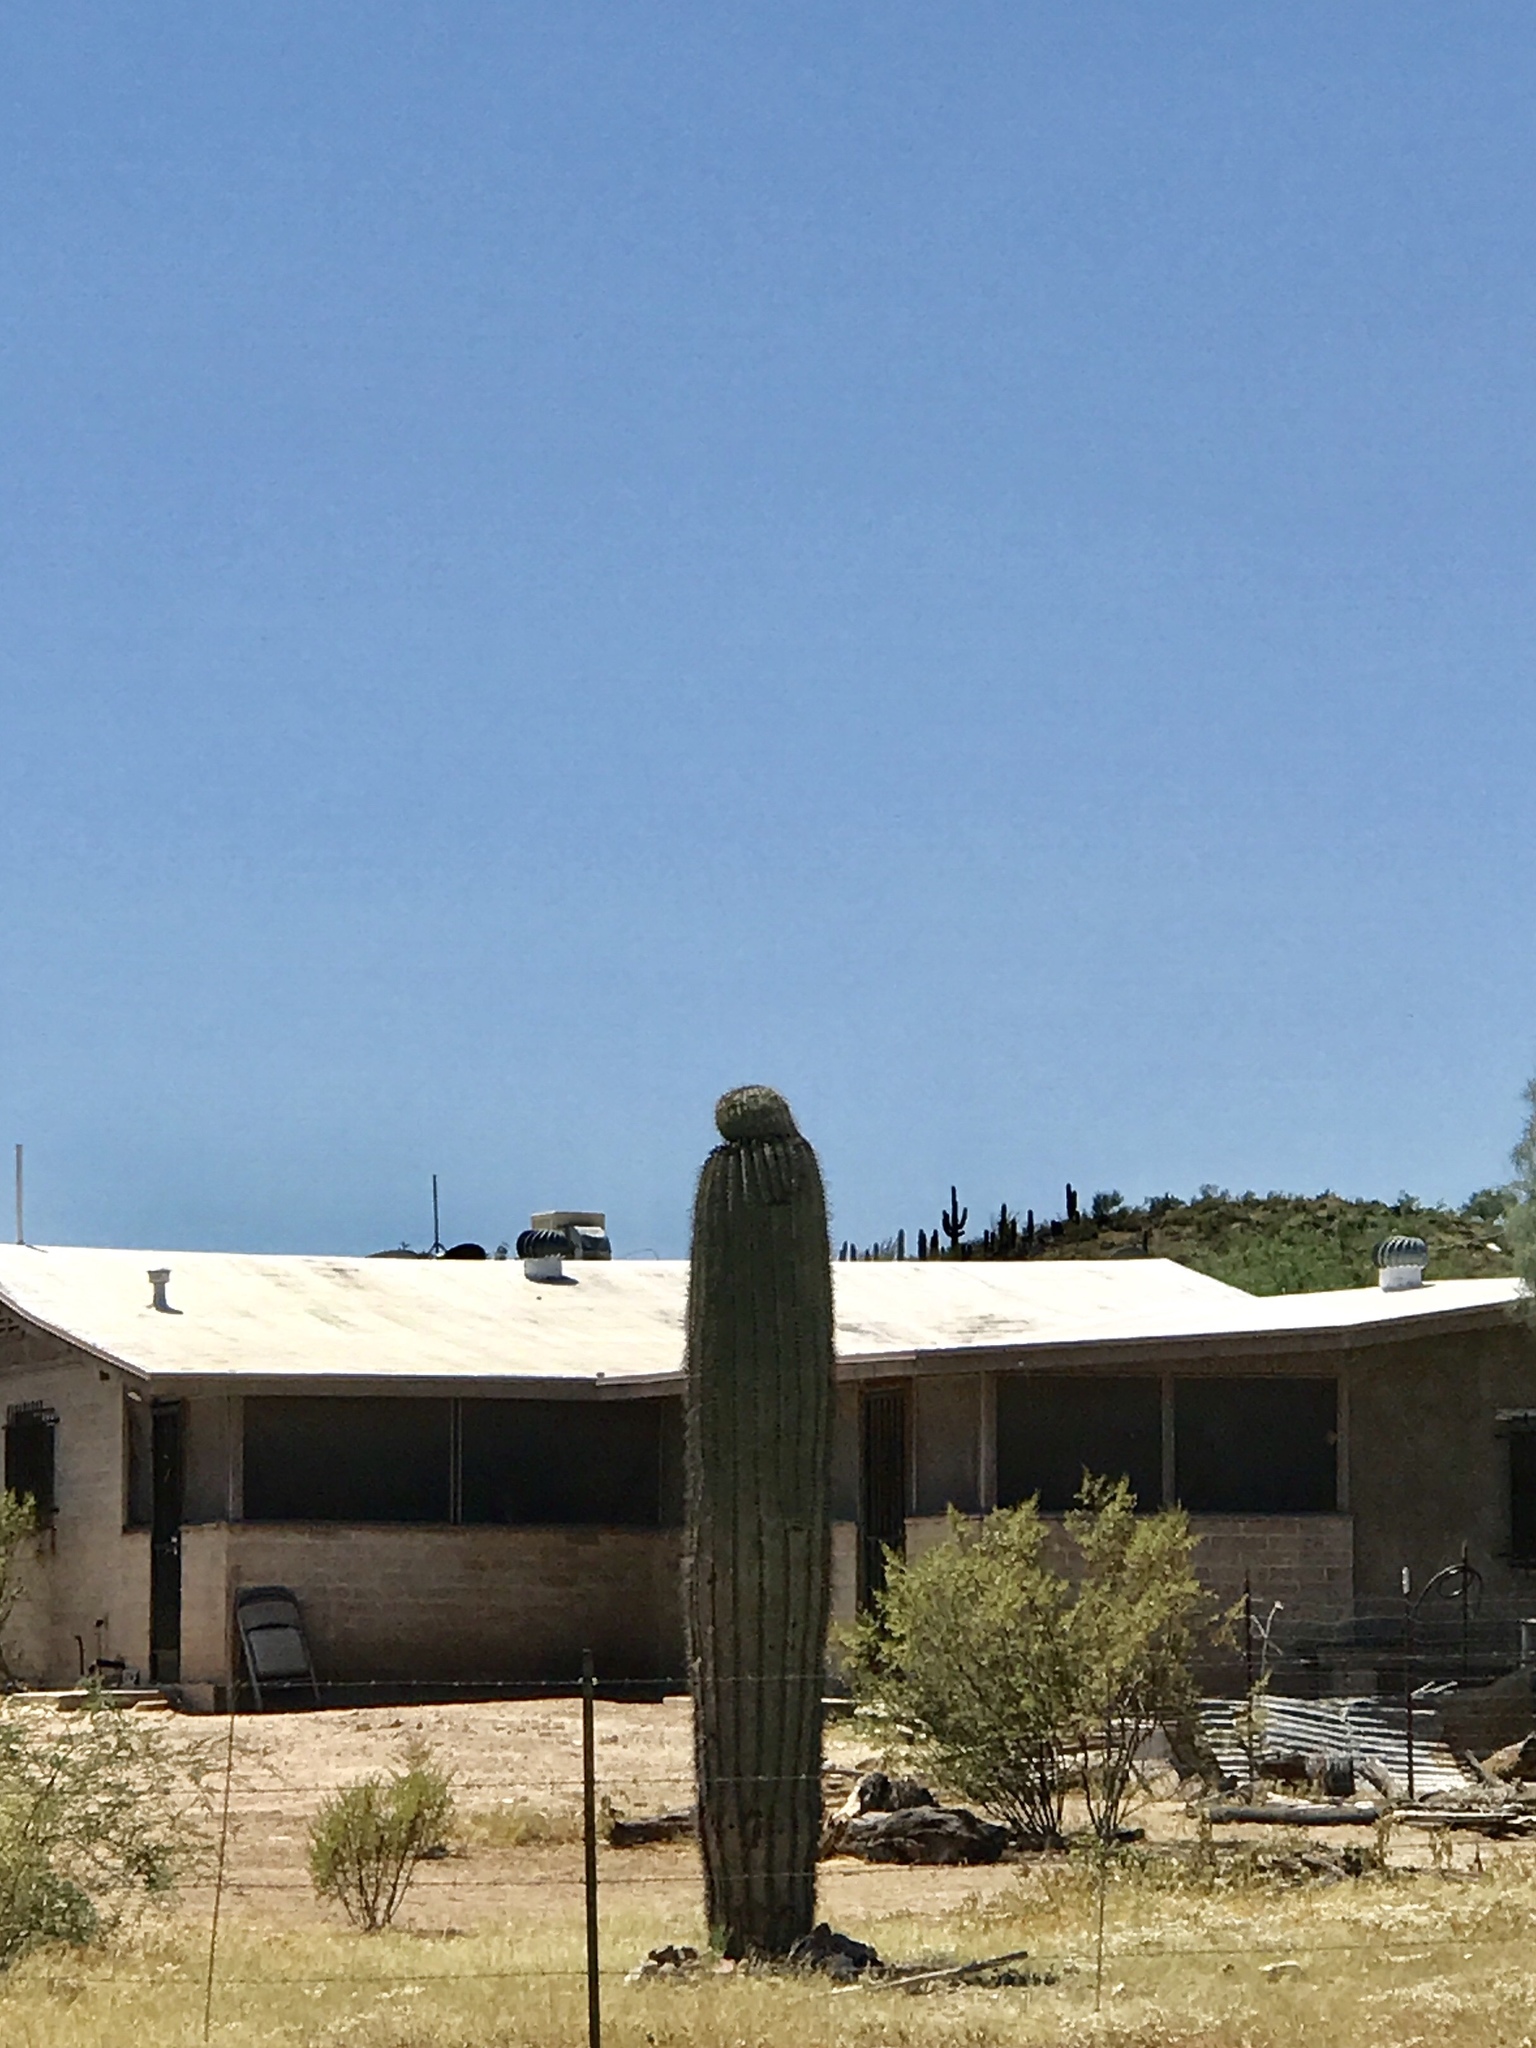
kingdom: Plantae
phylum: Tracheophyta
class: Magnoliopsida
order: Caryophyllales
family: Cactaceae
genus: Carnegiea
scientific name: Carnegiea gigantea
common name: Saguaro
